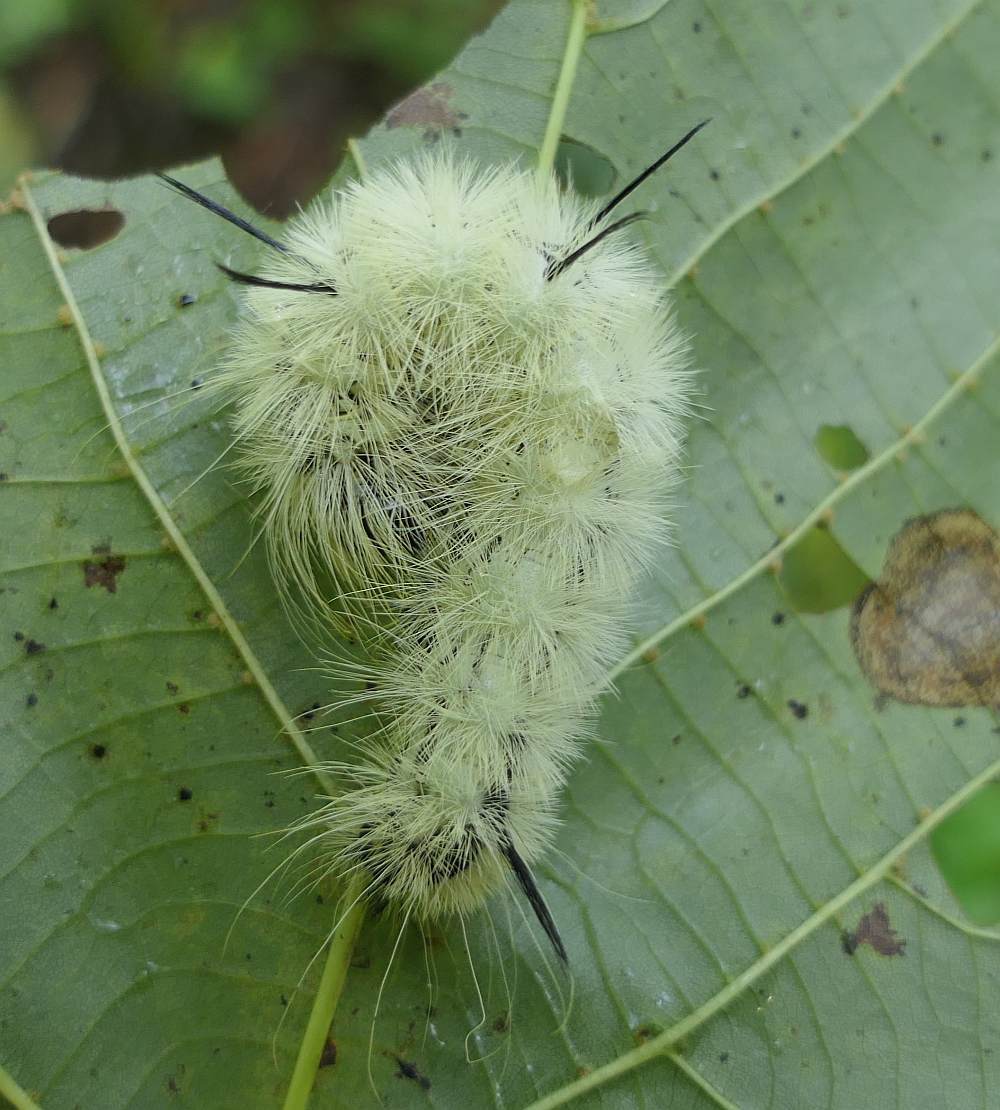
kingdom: Animalia
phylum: Arthropoda
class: Insecta
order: Lepidoptera
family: Noctuidae
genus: Acronicta
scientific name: Acronicta americana
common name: American dagger
